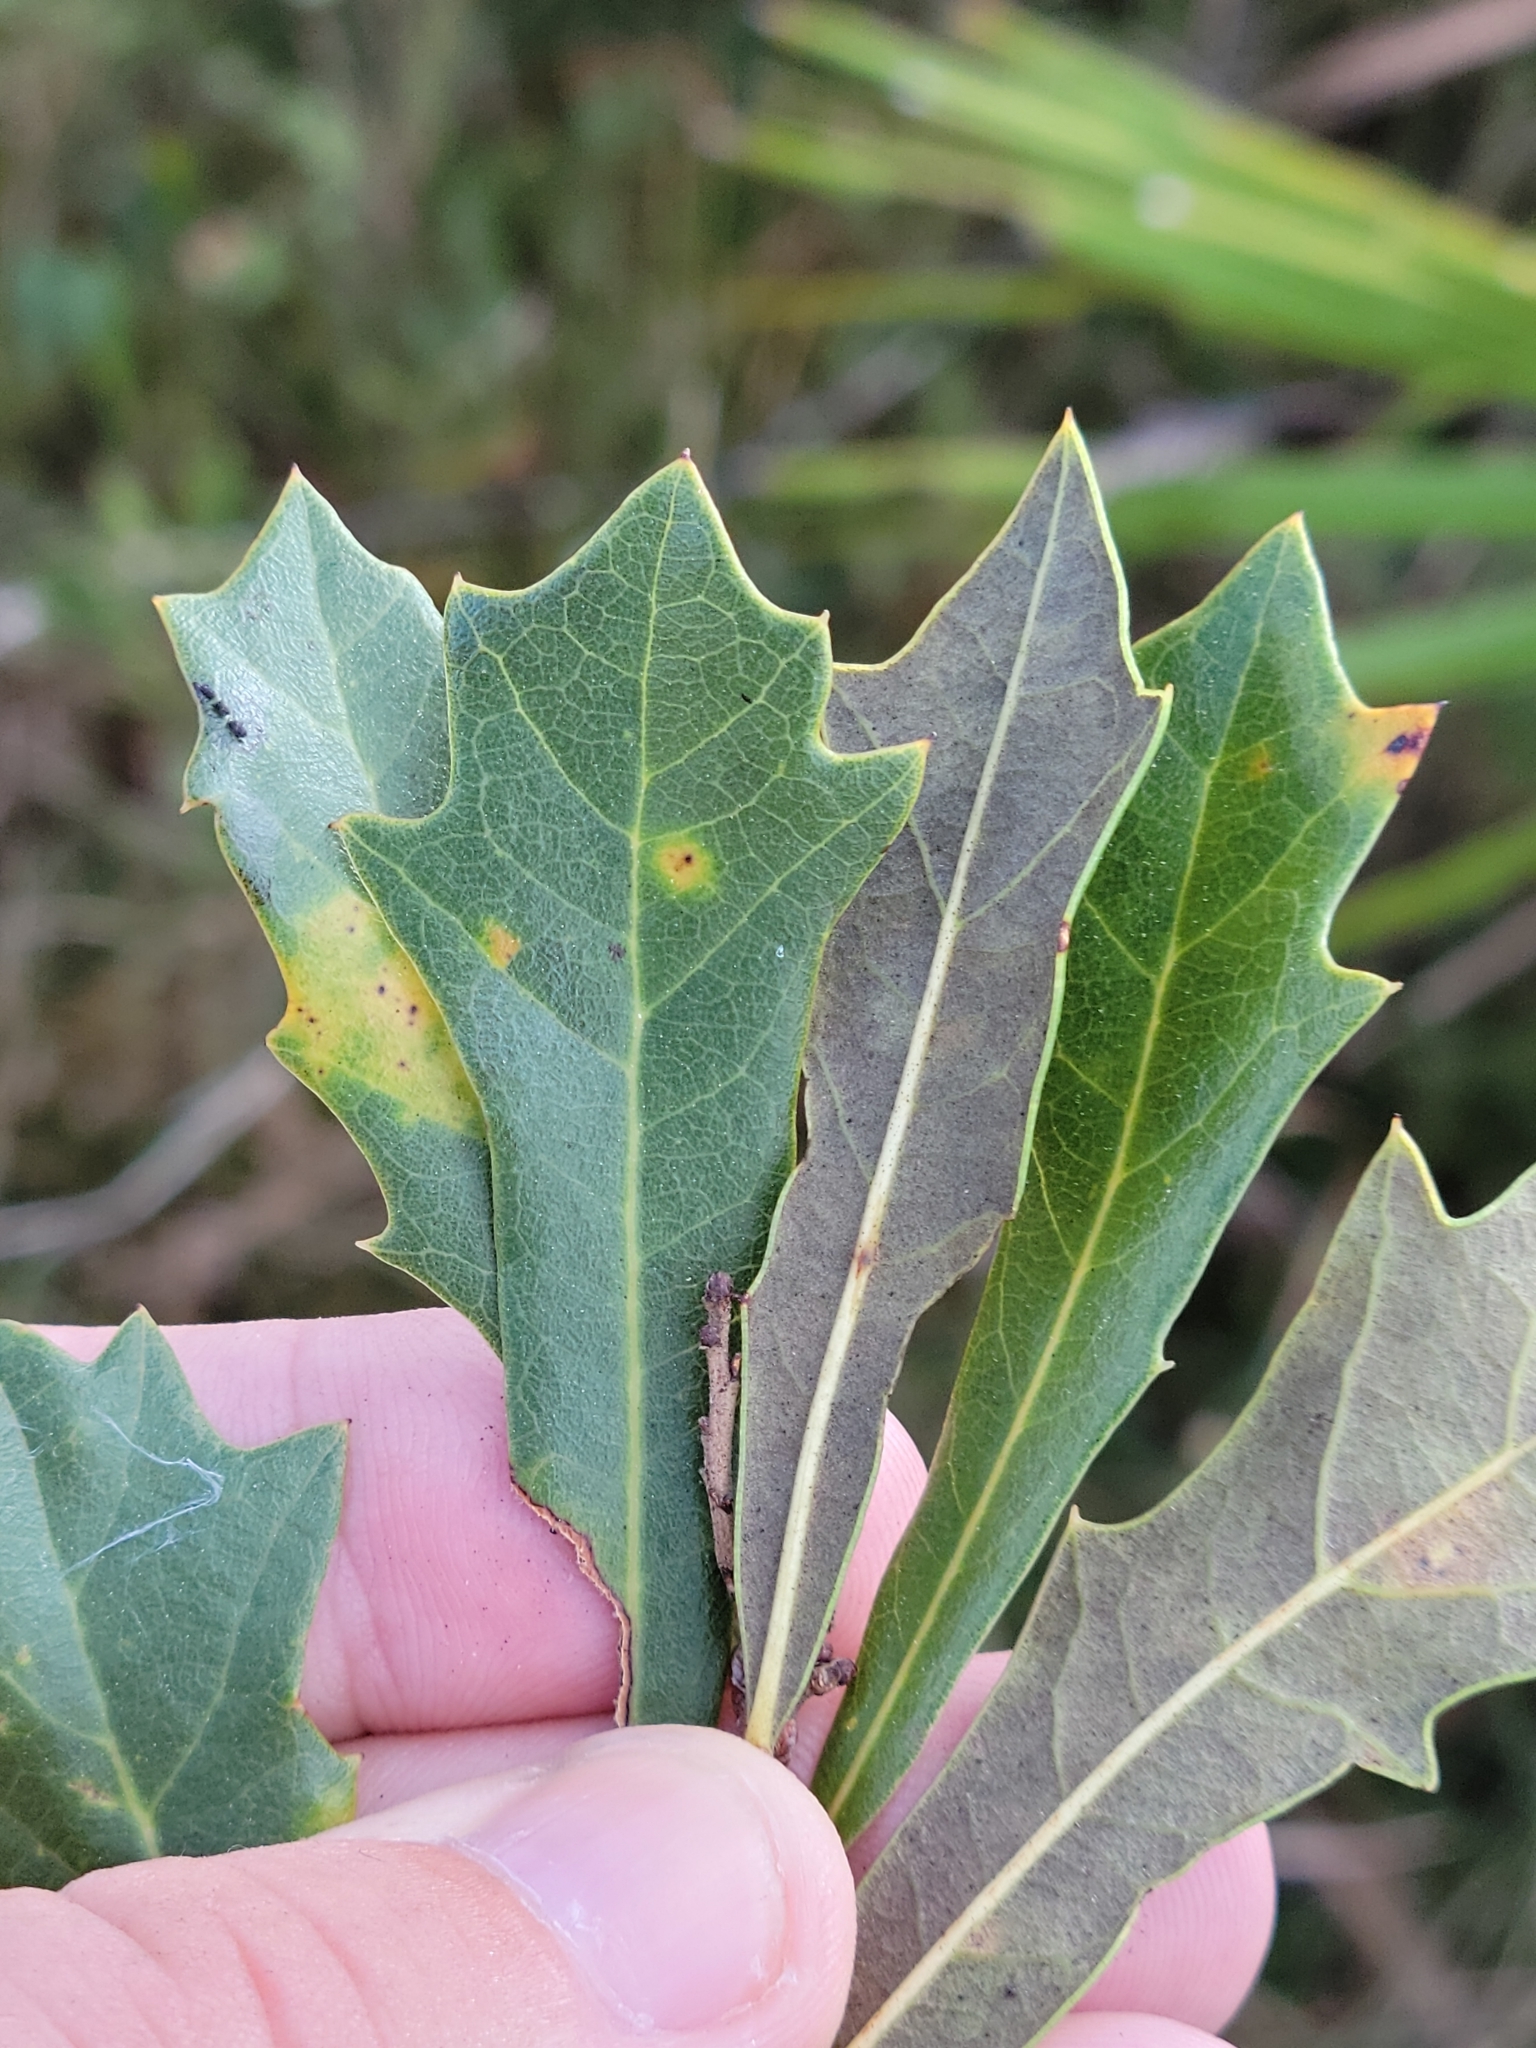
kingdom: Plantae
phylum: Tracheophyta
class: Magnoliopsida
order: Fagales
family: Fagaceae
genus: Quercus
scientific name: Quercus minima
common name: Dwarf live oak
